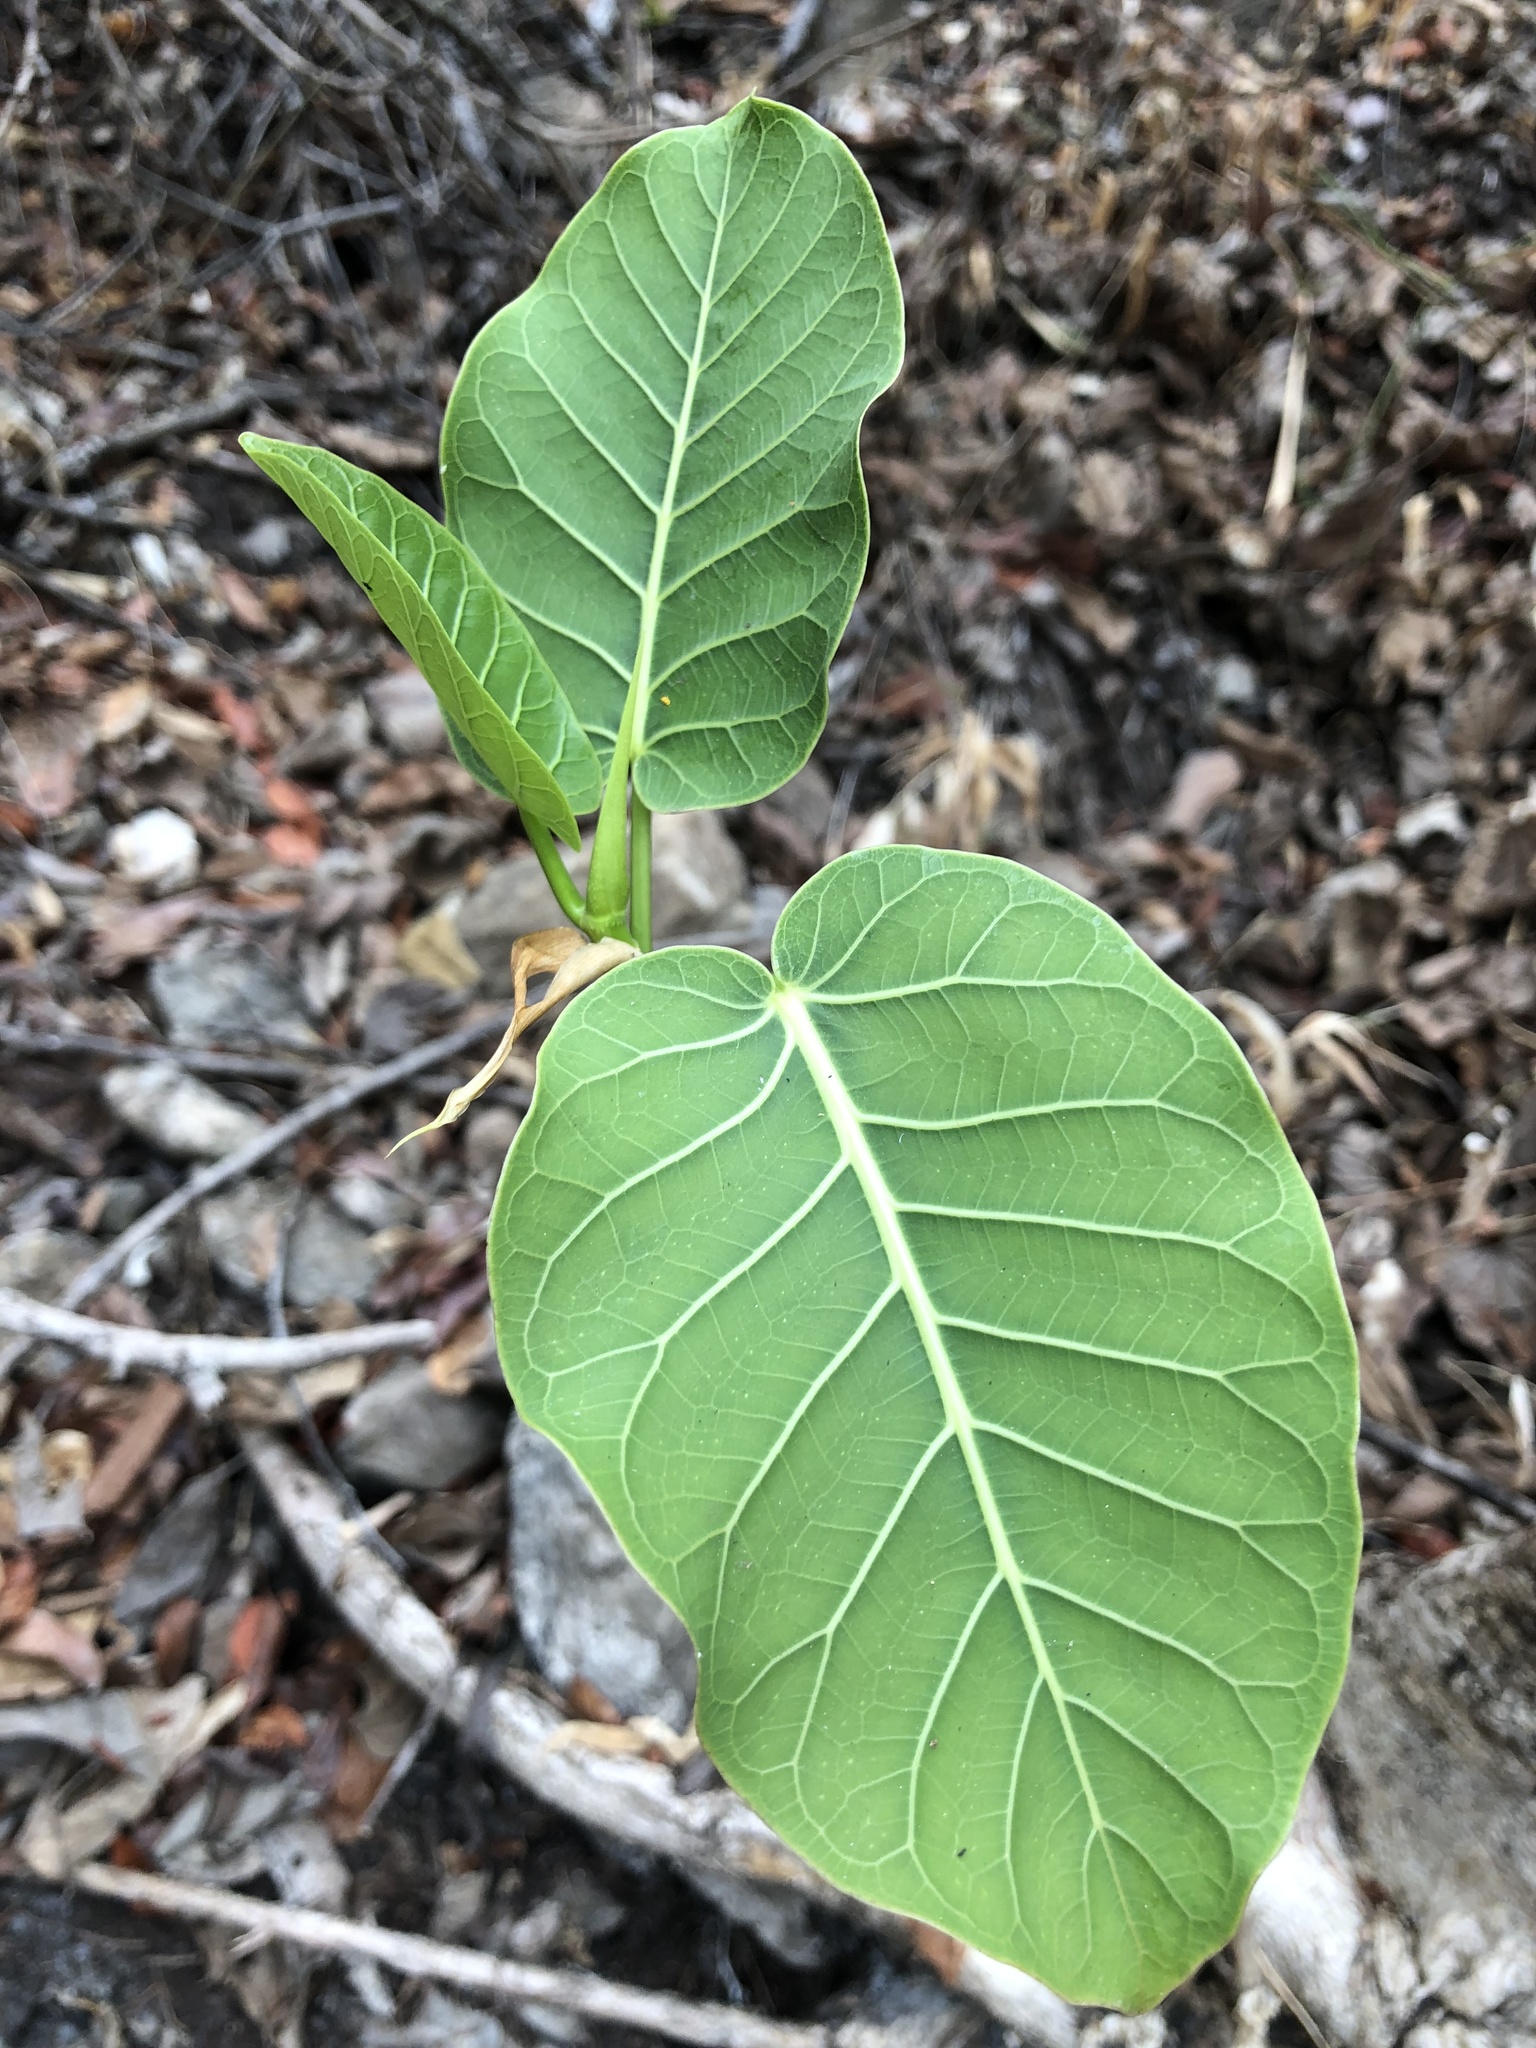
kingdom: Plantae
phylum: Tracheophyta
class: Magnoliopsida
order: Rosales
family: Moraceae
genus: Ficus
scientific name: Ficus petiolaris
